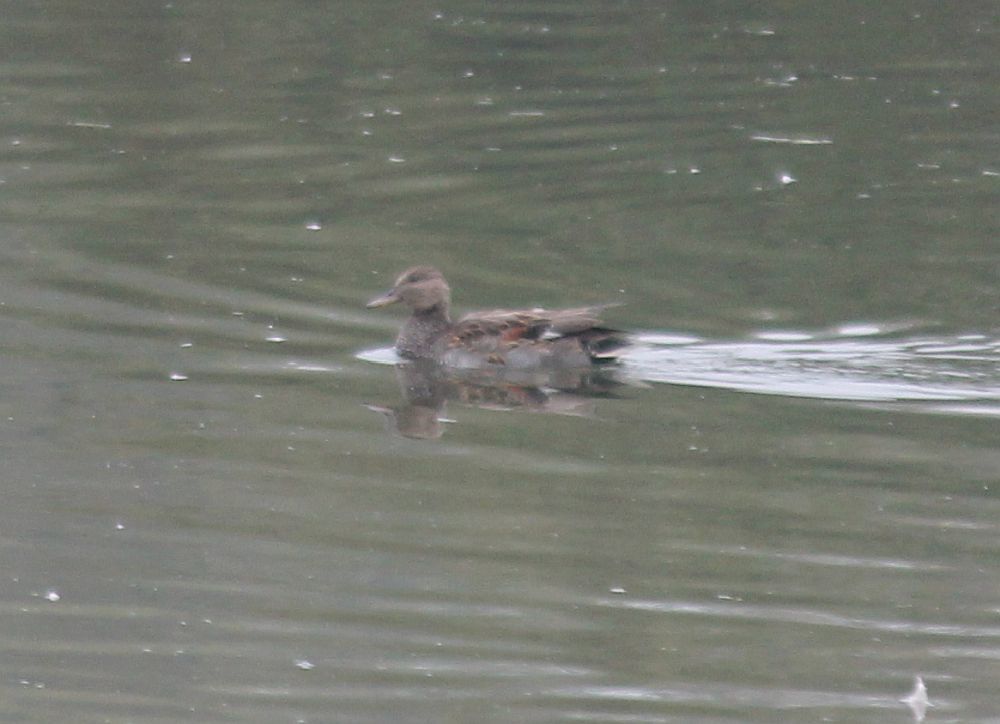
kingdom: Animalia
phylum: Chordata
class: Aves
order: Anseriformes
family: Anatidae
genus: Mareca
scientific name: Mareca strepera
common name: Gadwall
